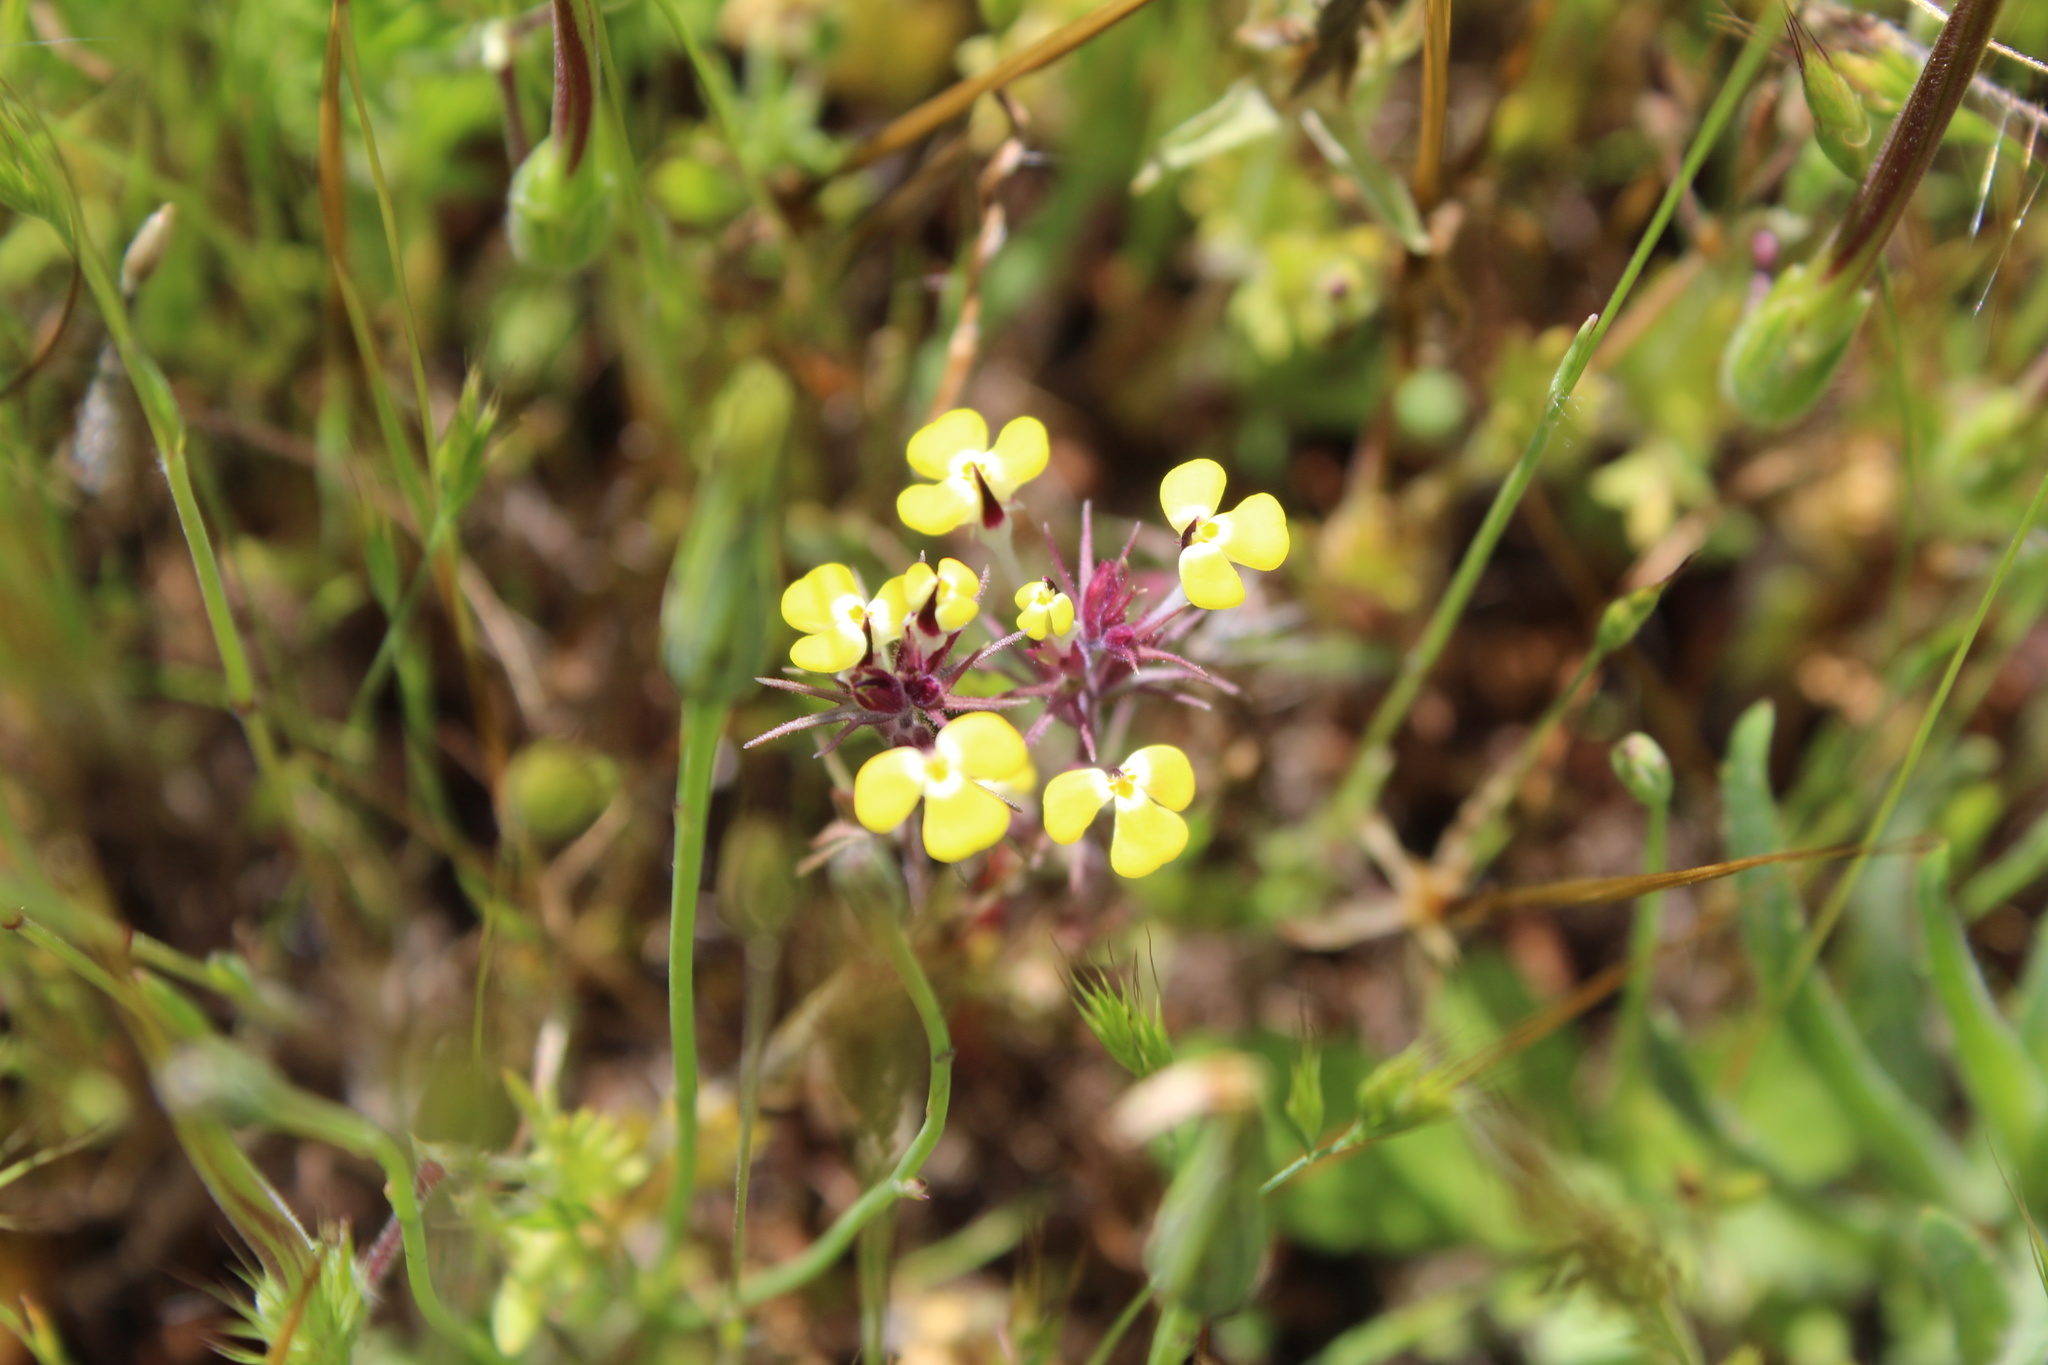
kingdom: Plantae
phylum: Tracheophyta
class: Magnoliopsida
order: Lamiales
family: Orobanchaceae
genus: Triphysaria
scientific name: Triphysaria eriantha
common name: Johnny-tuck
